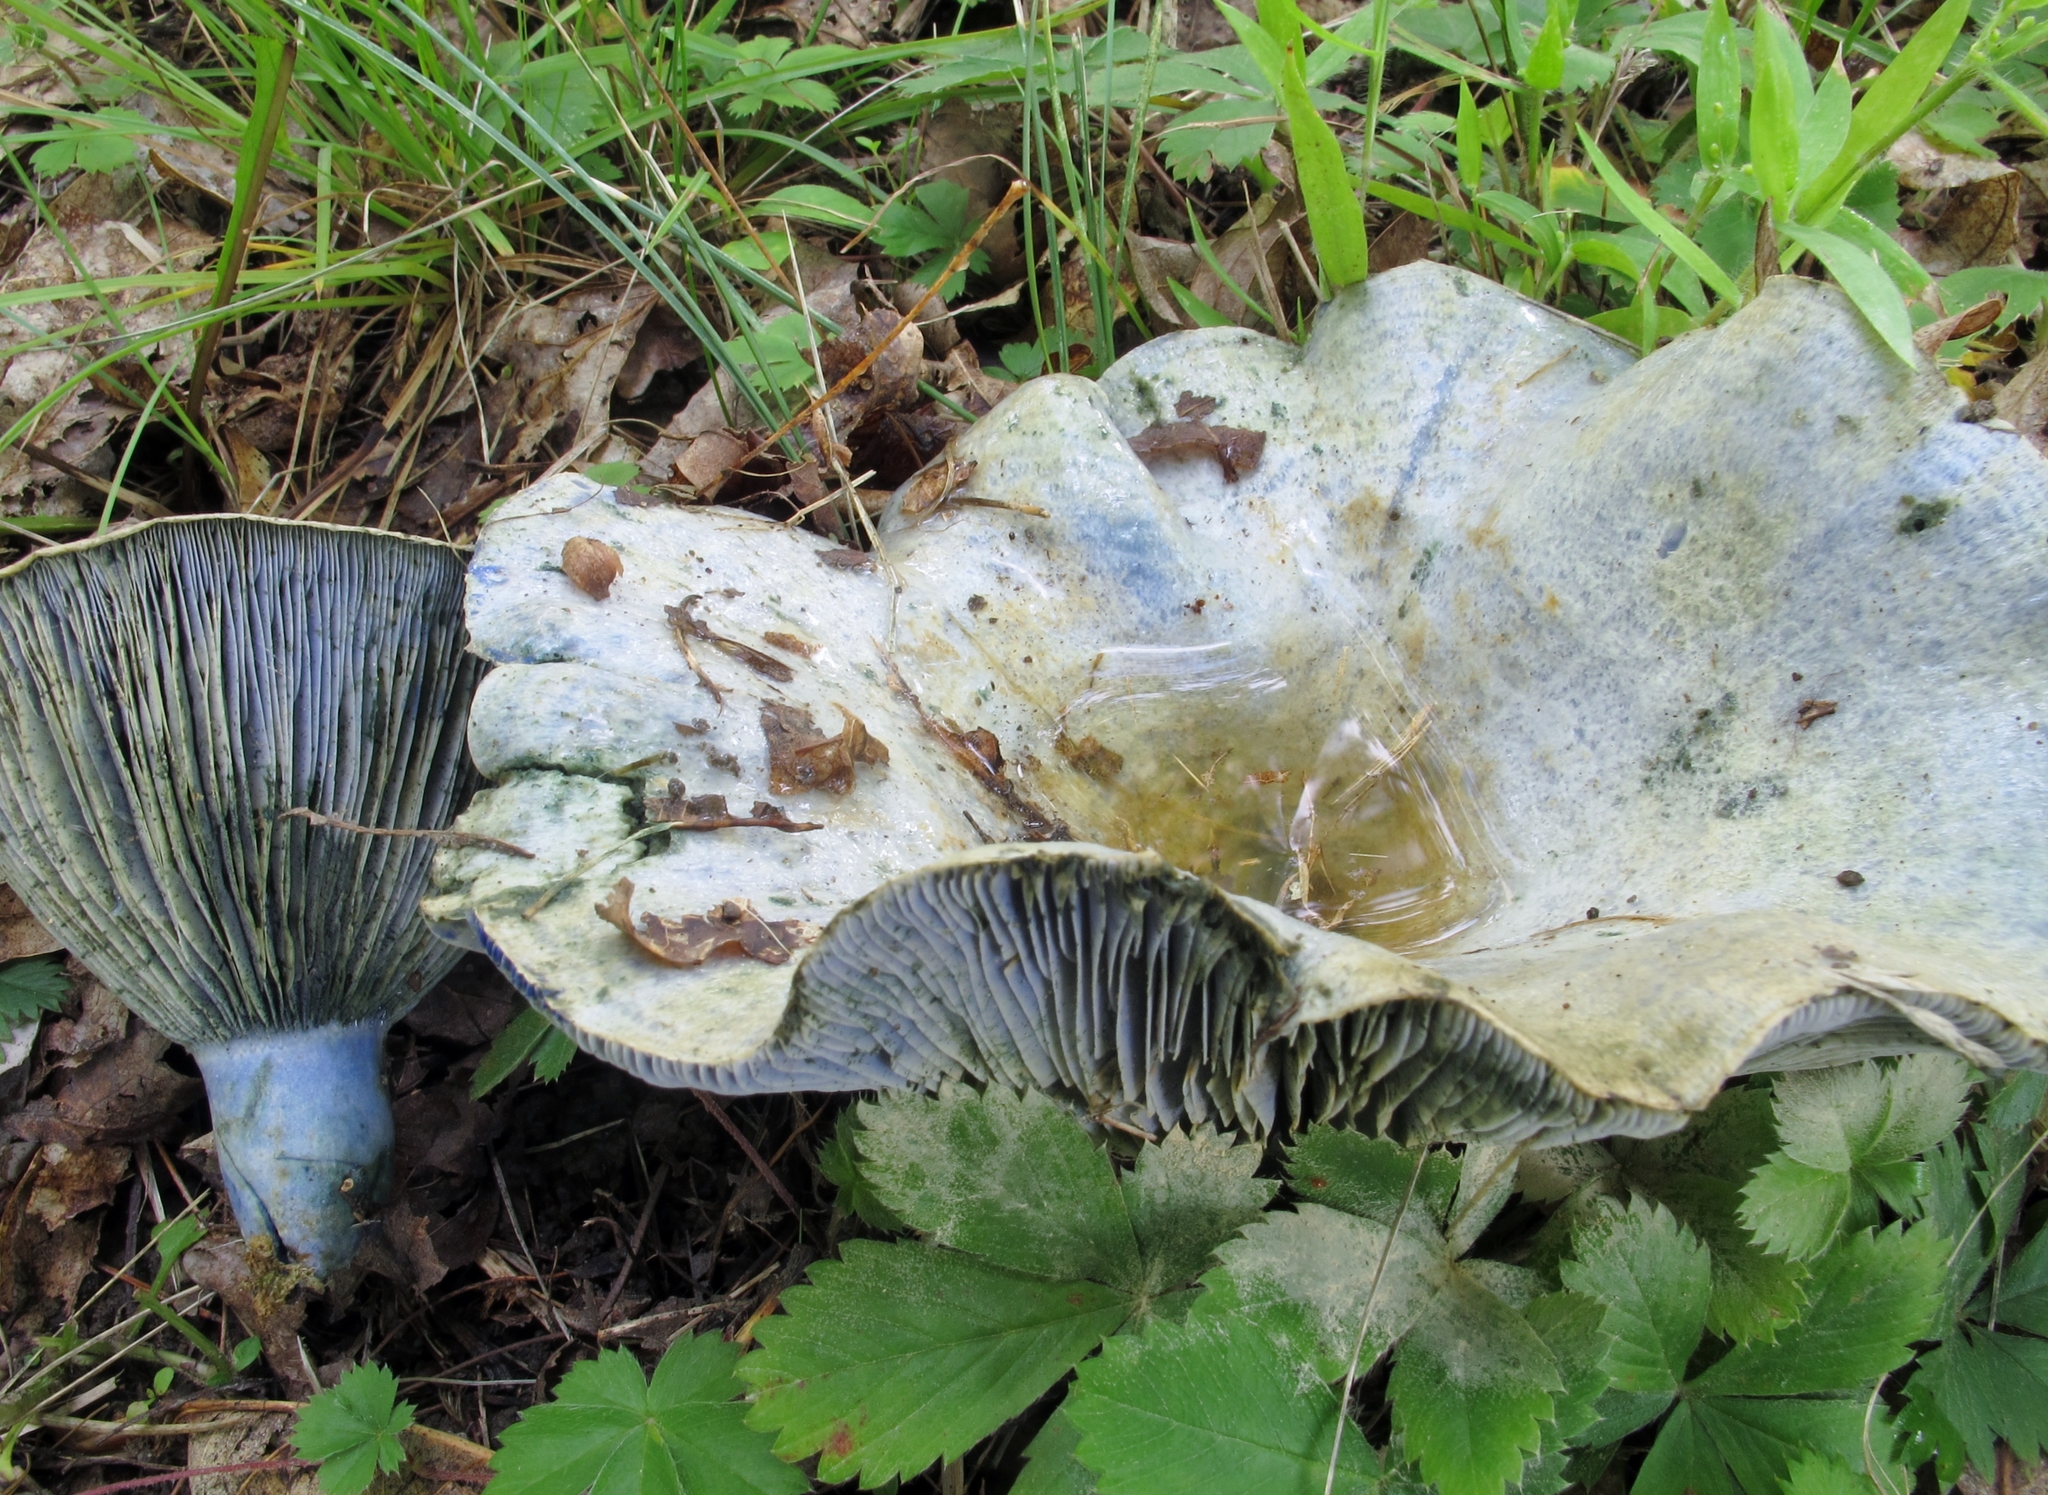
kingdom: Fungi
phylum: Basidiomycota
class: Agaricomycetes
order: Russulales
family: Russulaceae
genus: Lactarius
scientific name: Lactarius indigo
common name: Indigo milk cap
